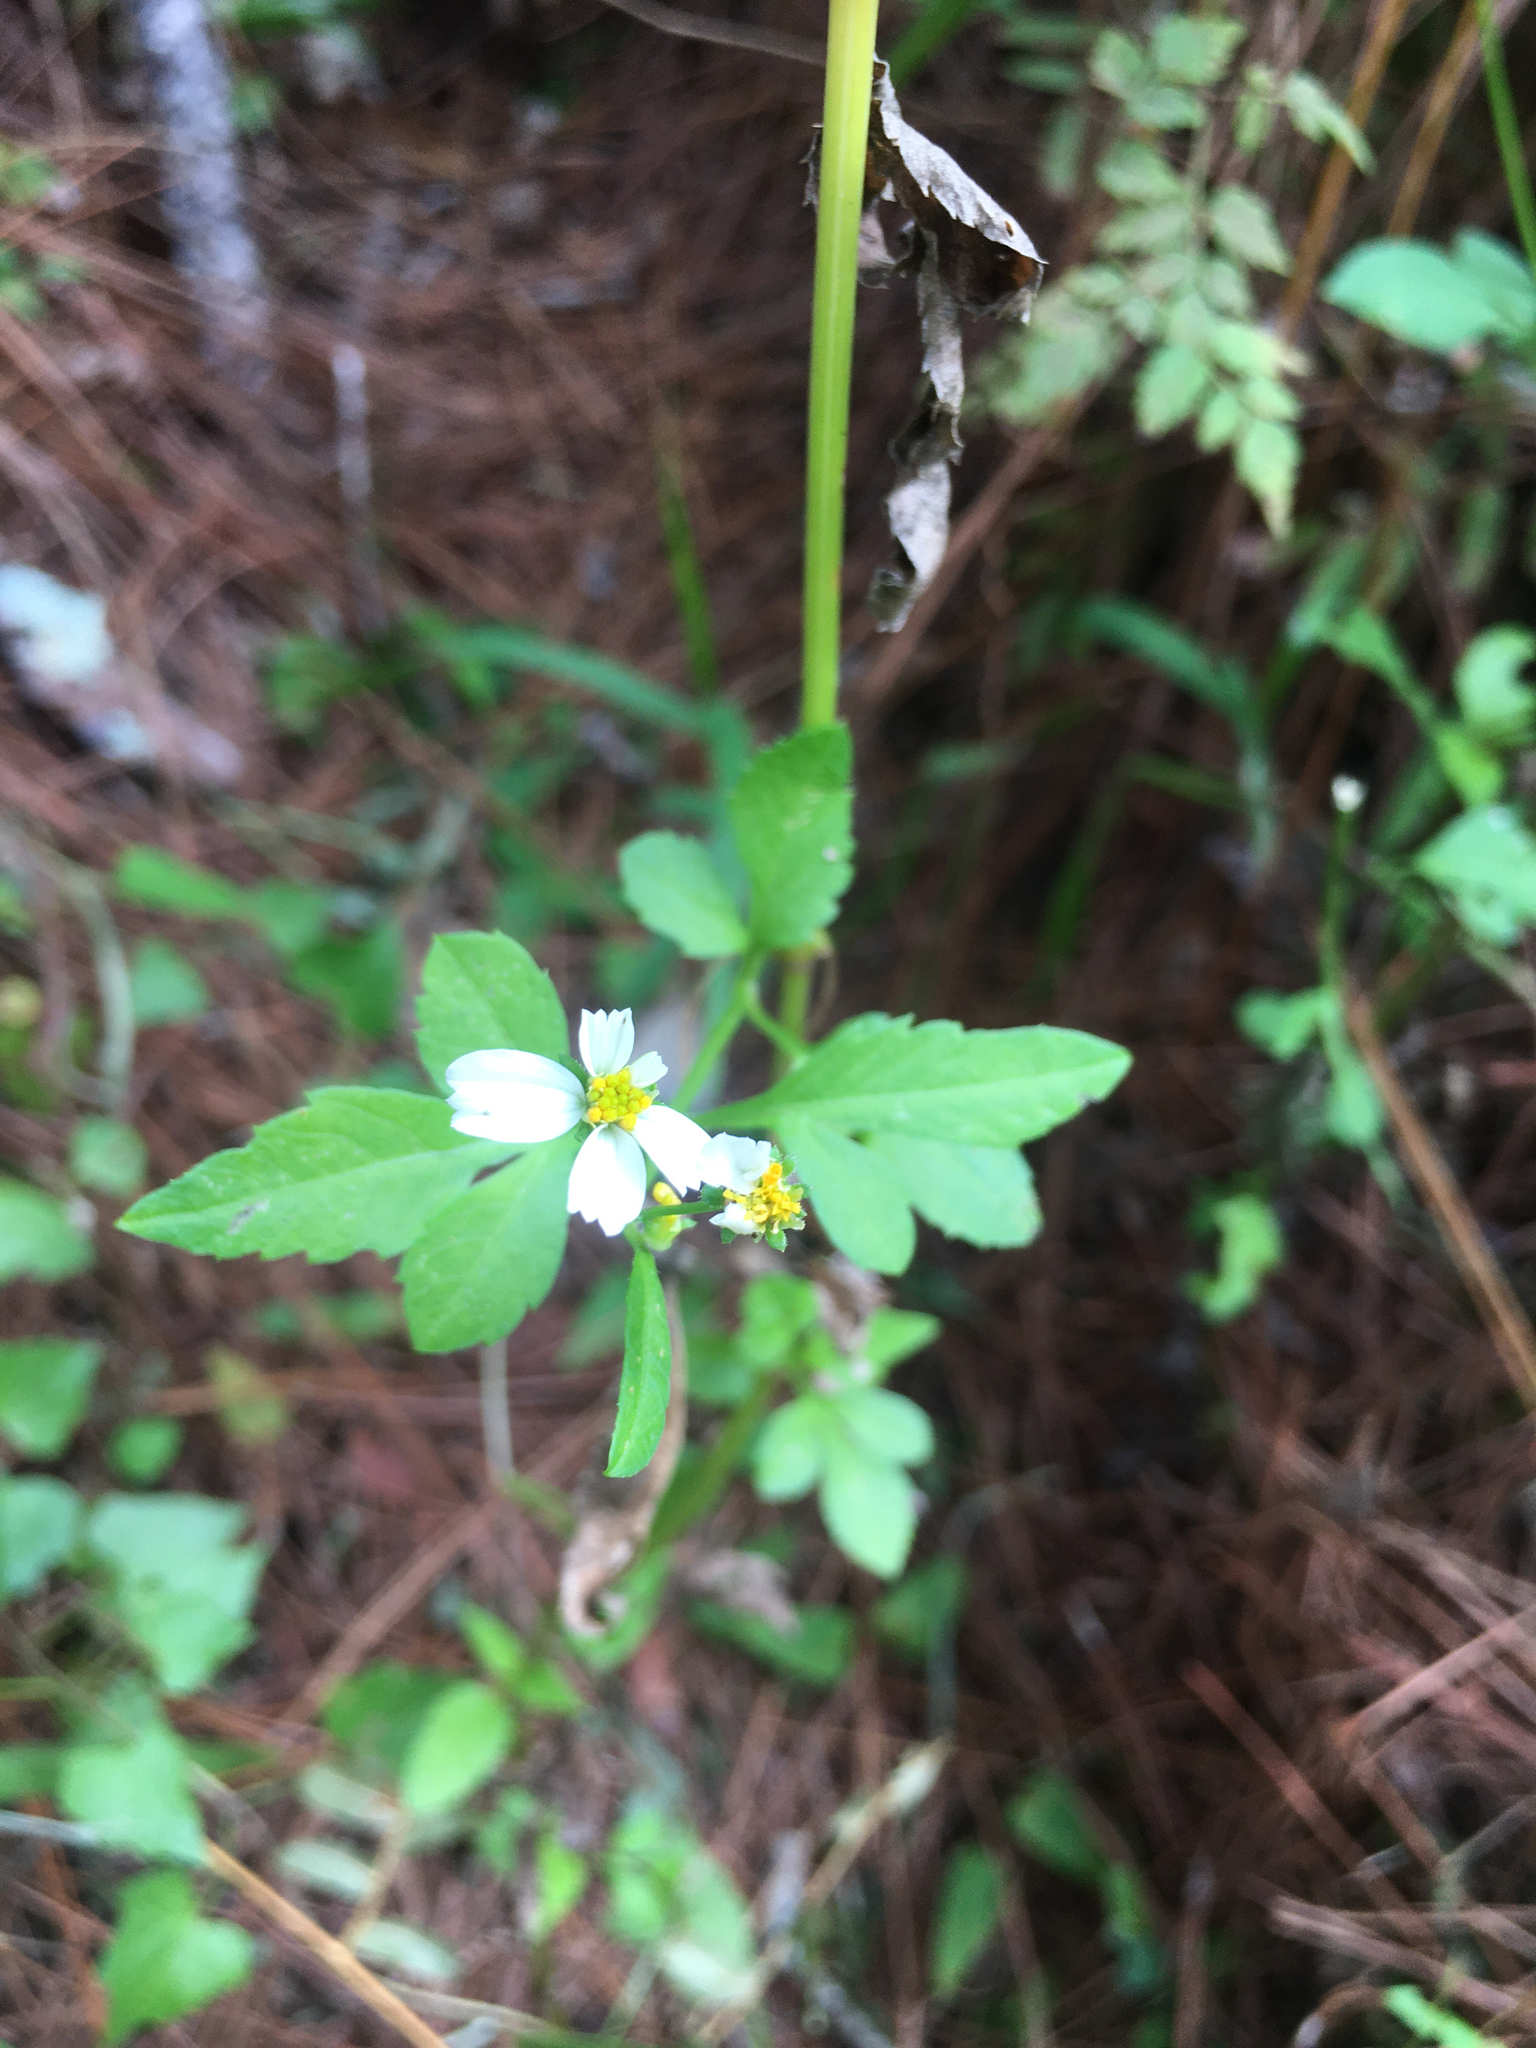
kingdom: Plantae
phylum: Tracheophyta
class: Magnoliopsida
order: Asterales
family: Asteraceae
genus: Bidens
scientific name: Bidens alba
